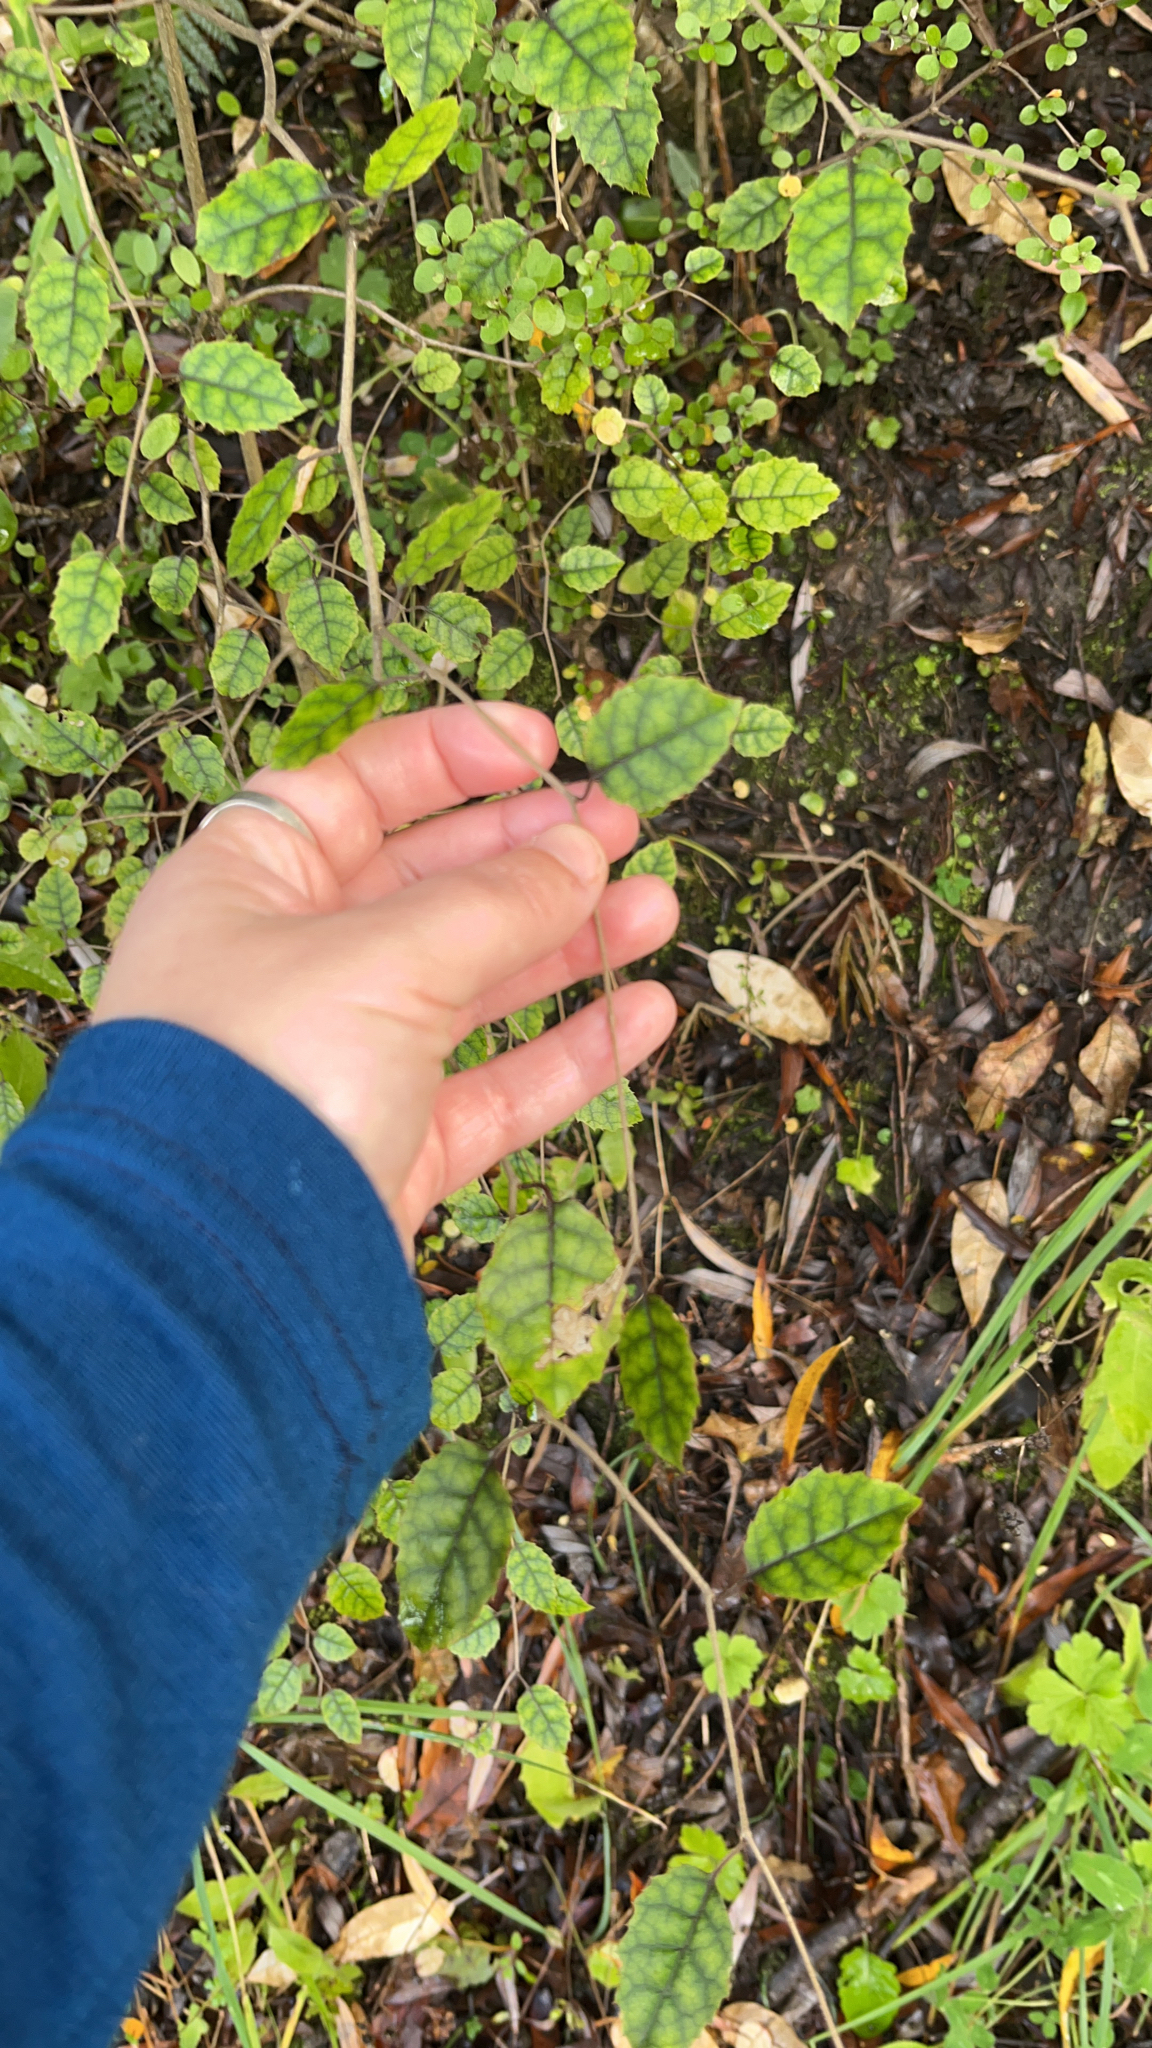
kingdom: Plantae
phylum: Tracheophyta
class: Magnoliopsida
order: Asterales
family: Rousseaceae
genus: Carpodetus
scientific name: Carpodetus serratus
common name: White mapau
